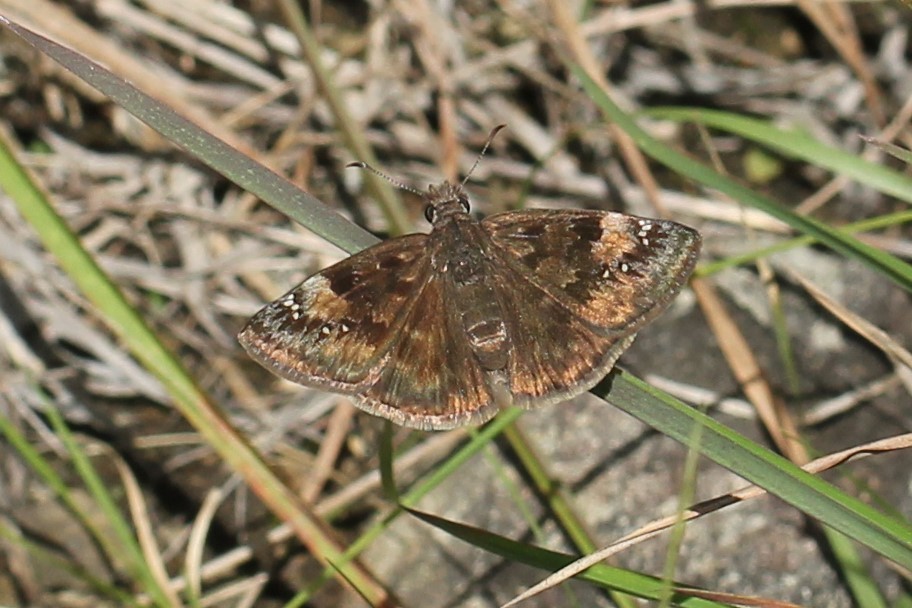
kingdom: Animalia
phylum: Arthropoda
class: Insecta
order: Lepidoptera
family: Hesperiidae
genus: Erynnis
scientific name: Erynnis baptisiae
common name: Wild indigo duskywing
